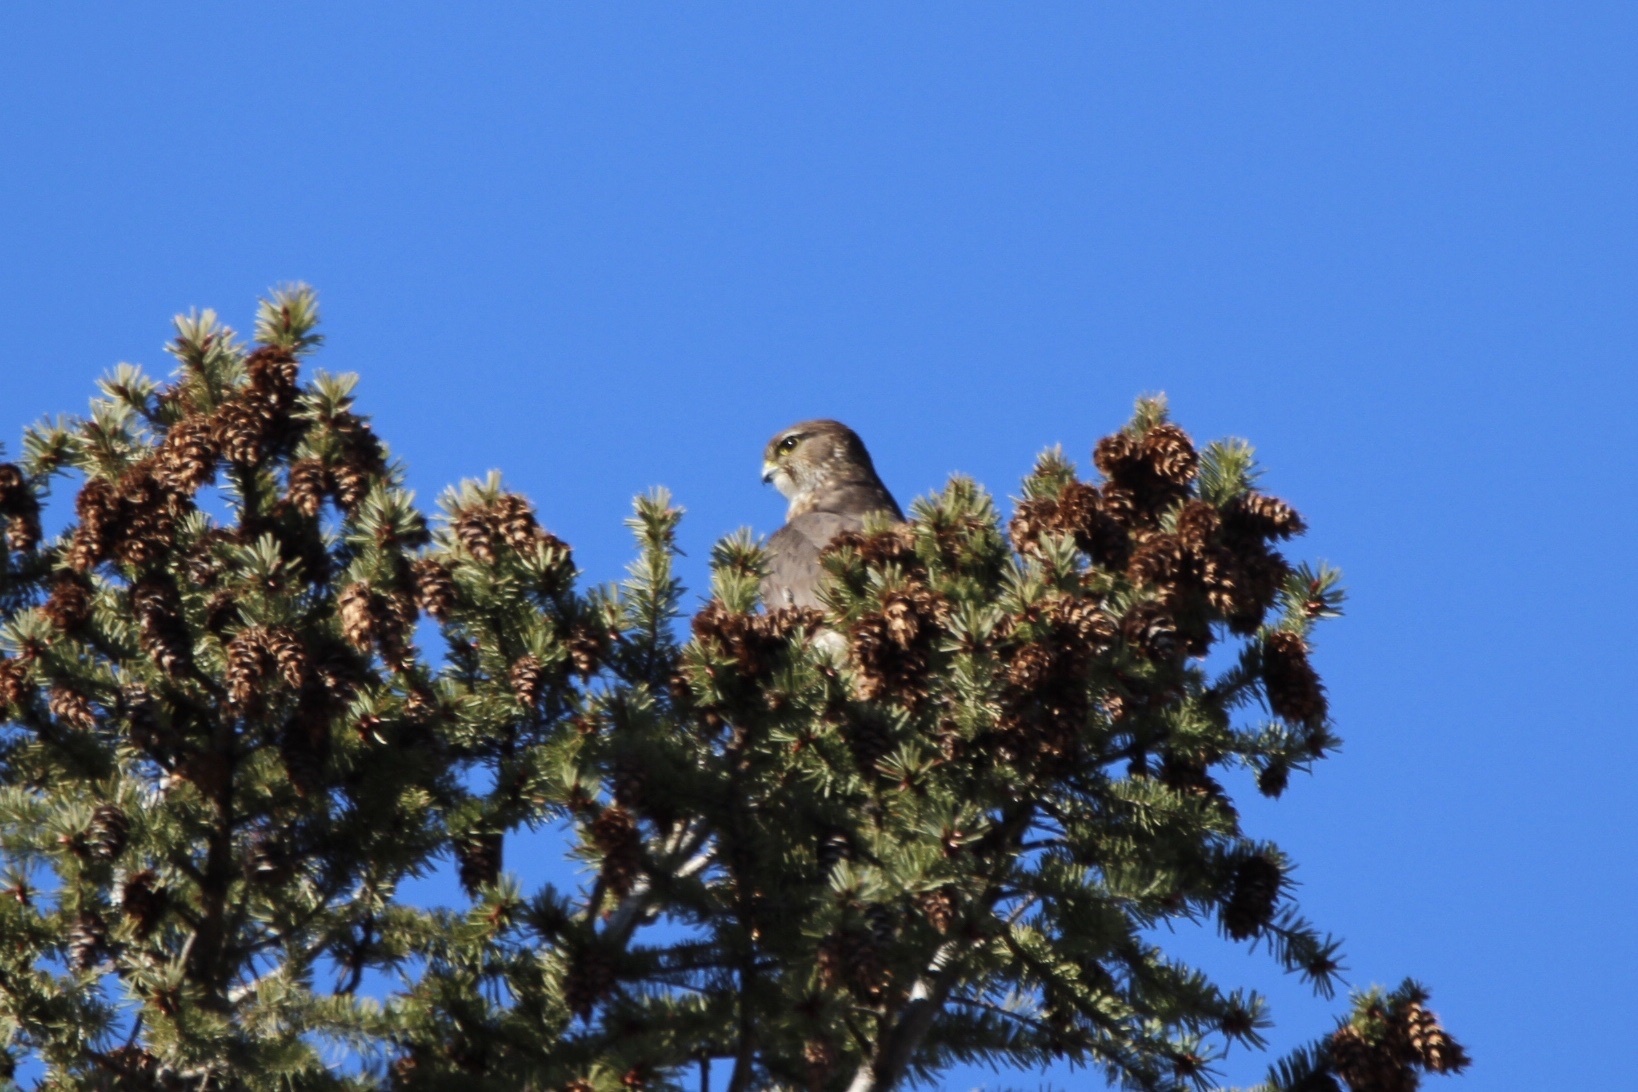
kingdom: Animalia
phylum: Chordata
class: Aves
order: Falconiformes
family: Falconidae
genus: Falco
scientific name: Falco columbarius
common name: Merlin
